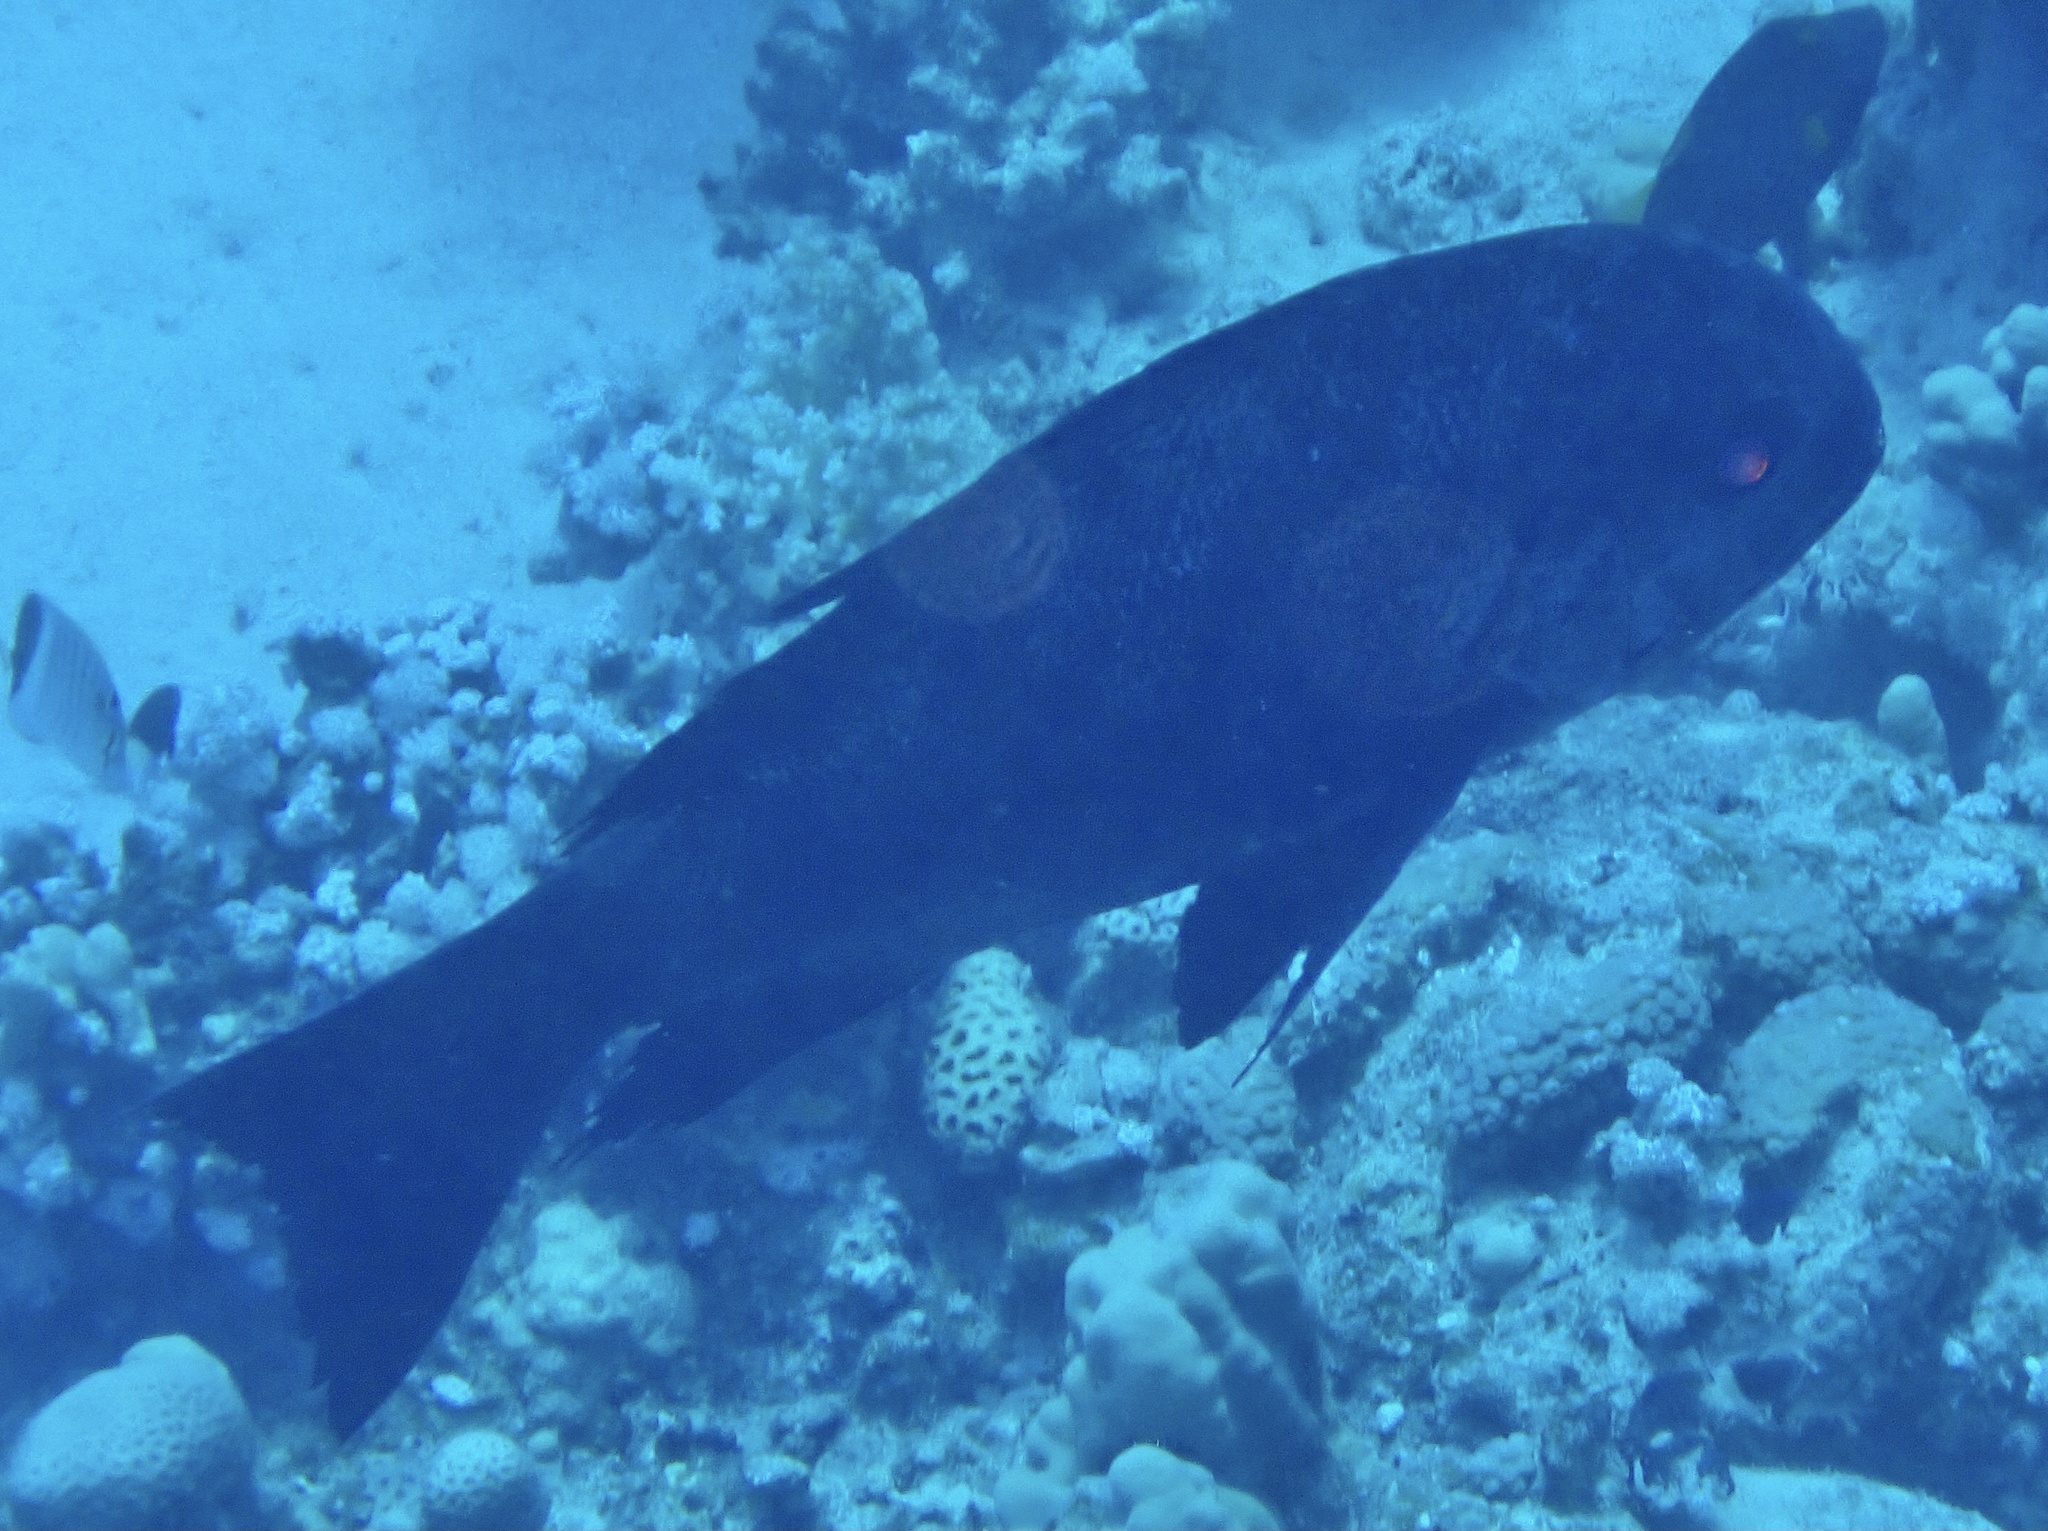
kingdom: Animalia
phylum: Chordata
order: Perciformes
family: Lutjanidae
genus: Macolor
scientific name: Macolor niger
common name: Black snapper
